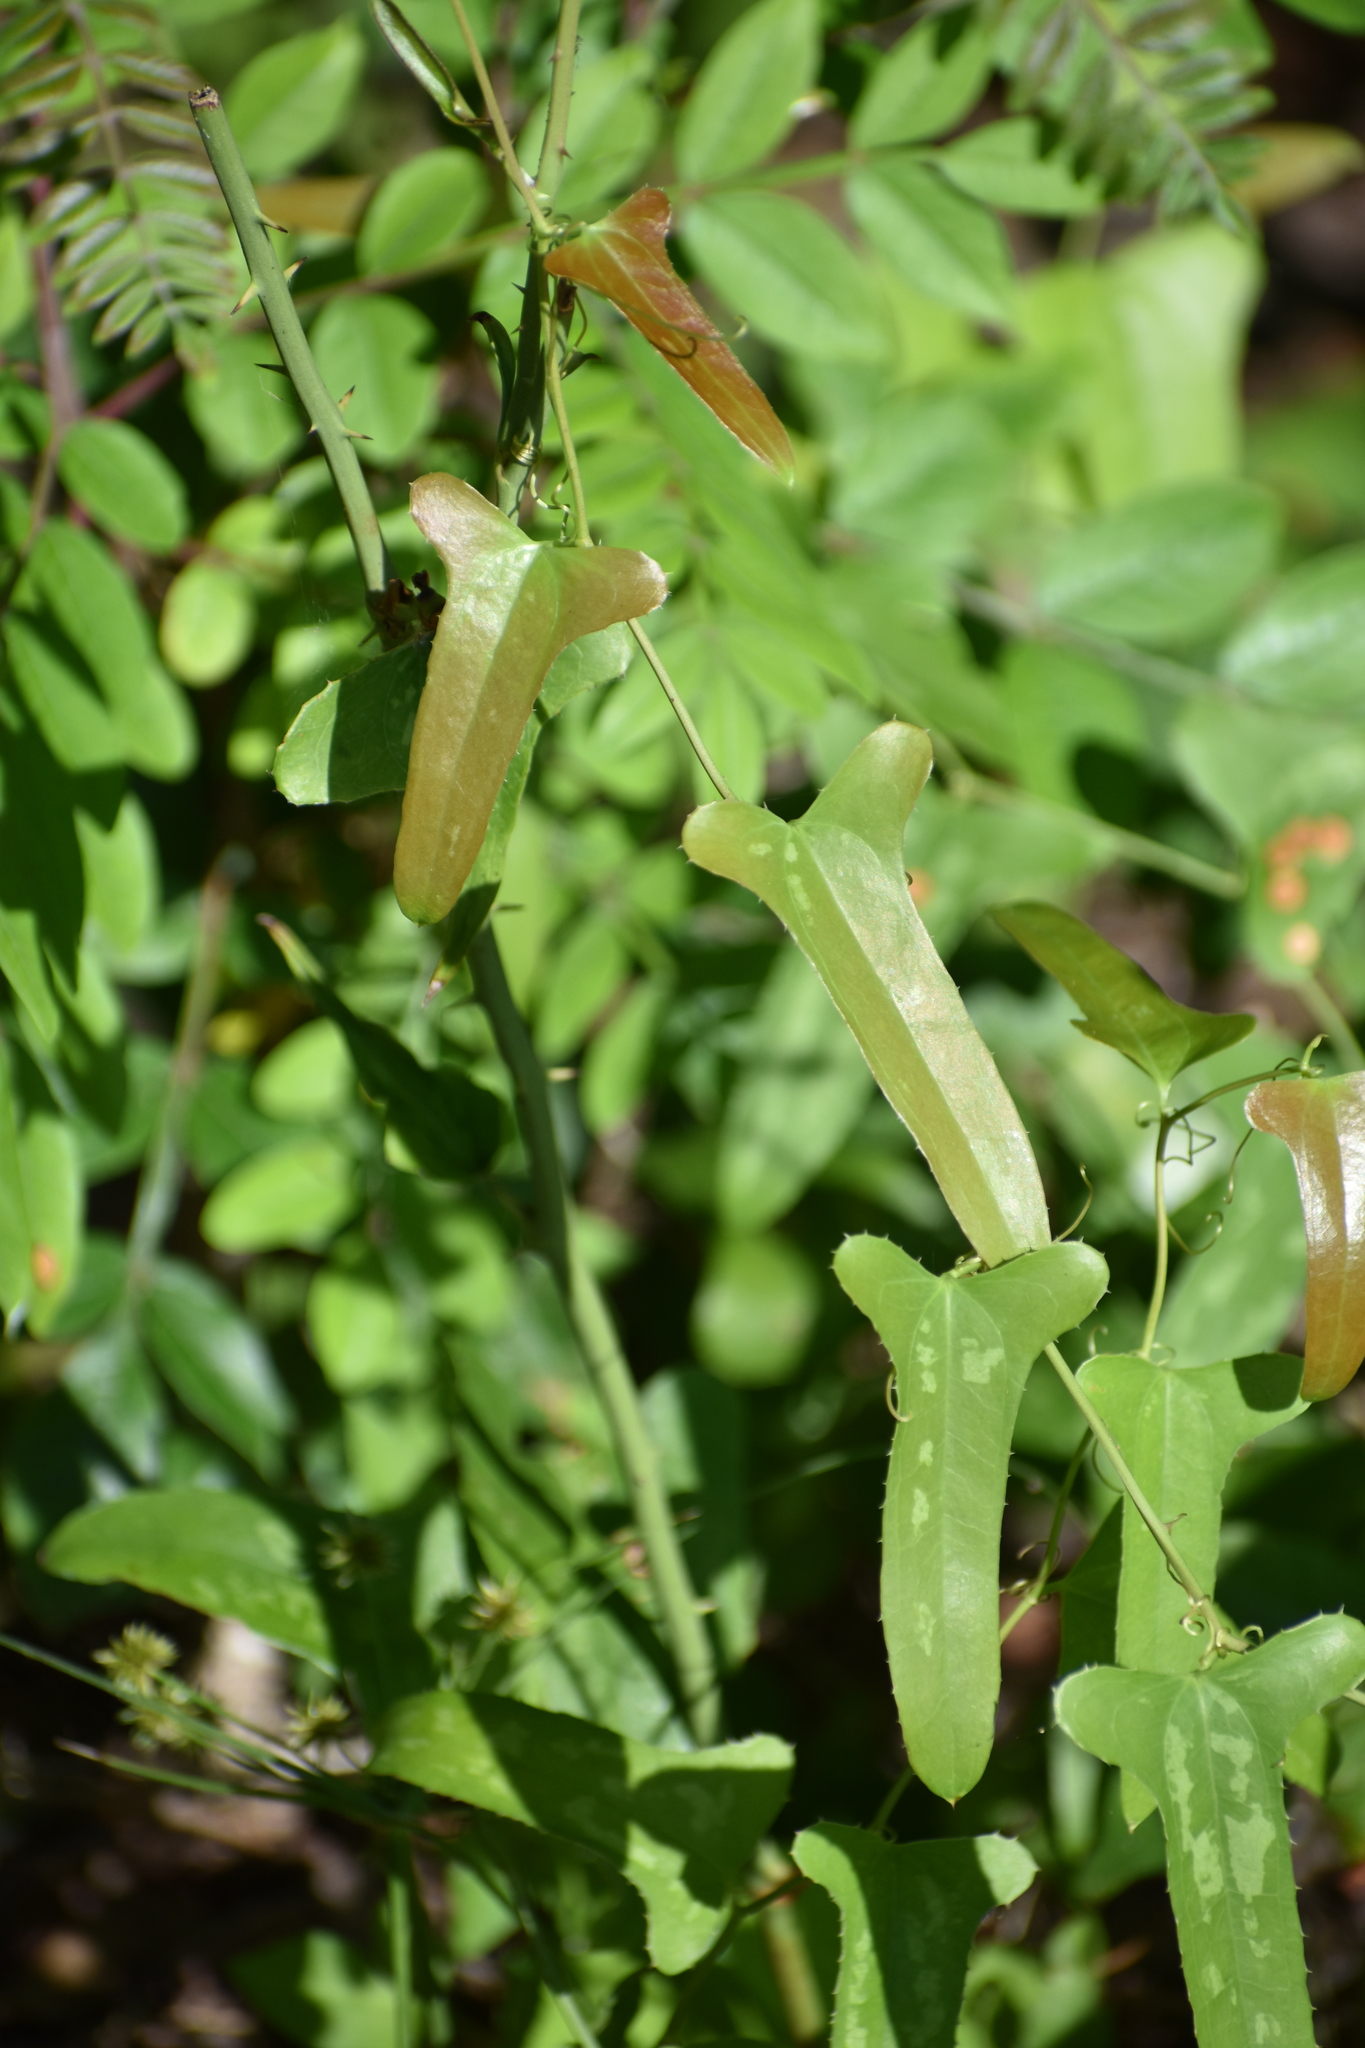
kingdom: Plantae
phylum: Tracheophyta
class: Liliopsida
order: Liliales
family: Smilacaceae
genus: Smilax
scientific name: Smilax bona-nox
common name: Catbrier
